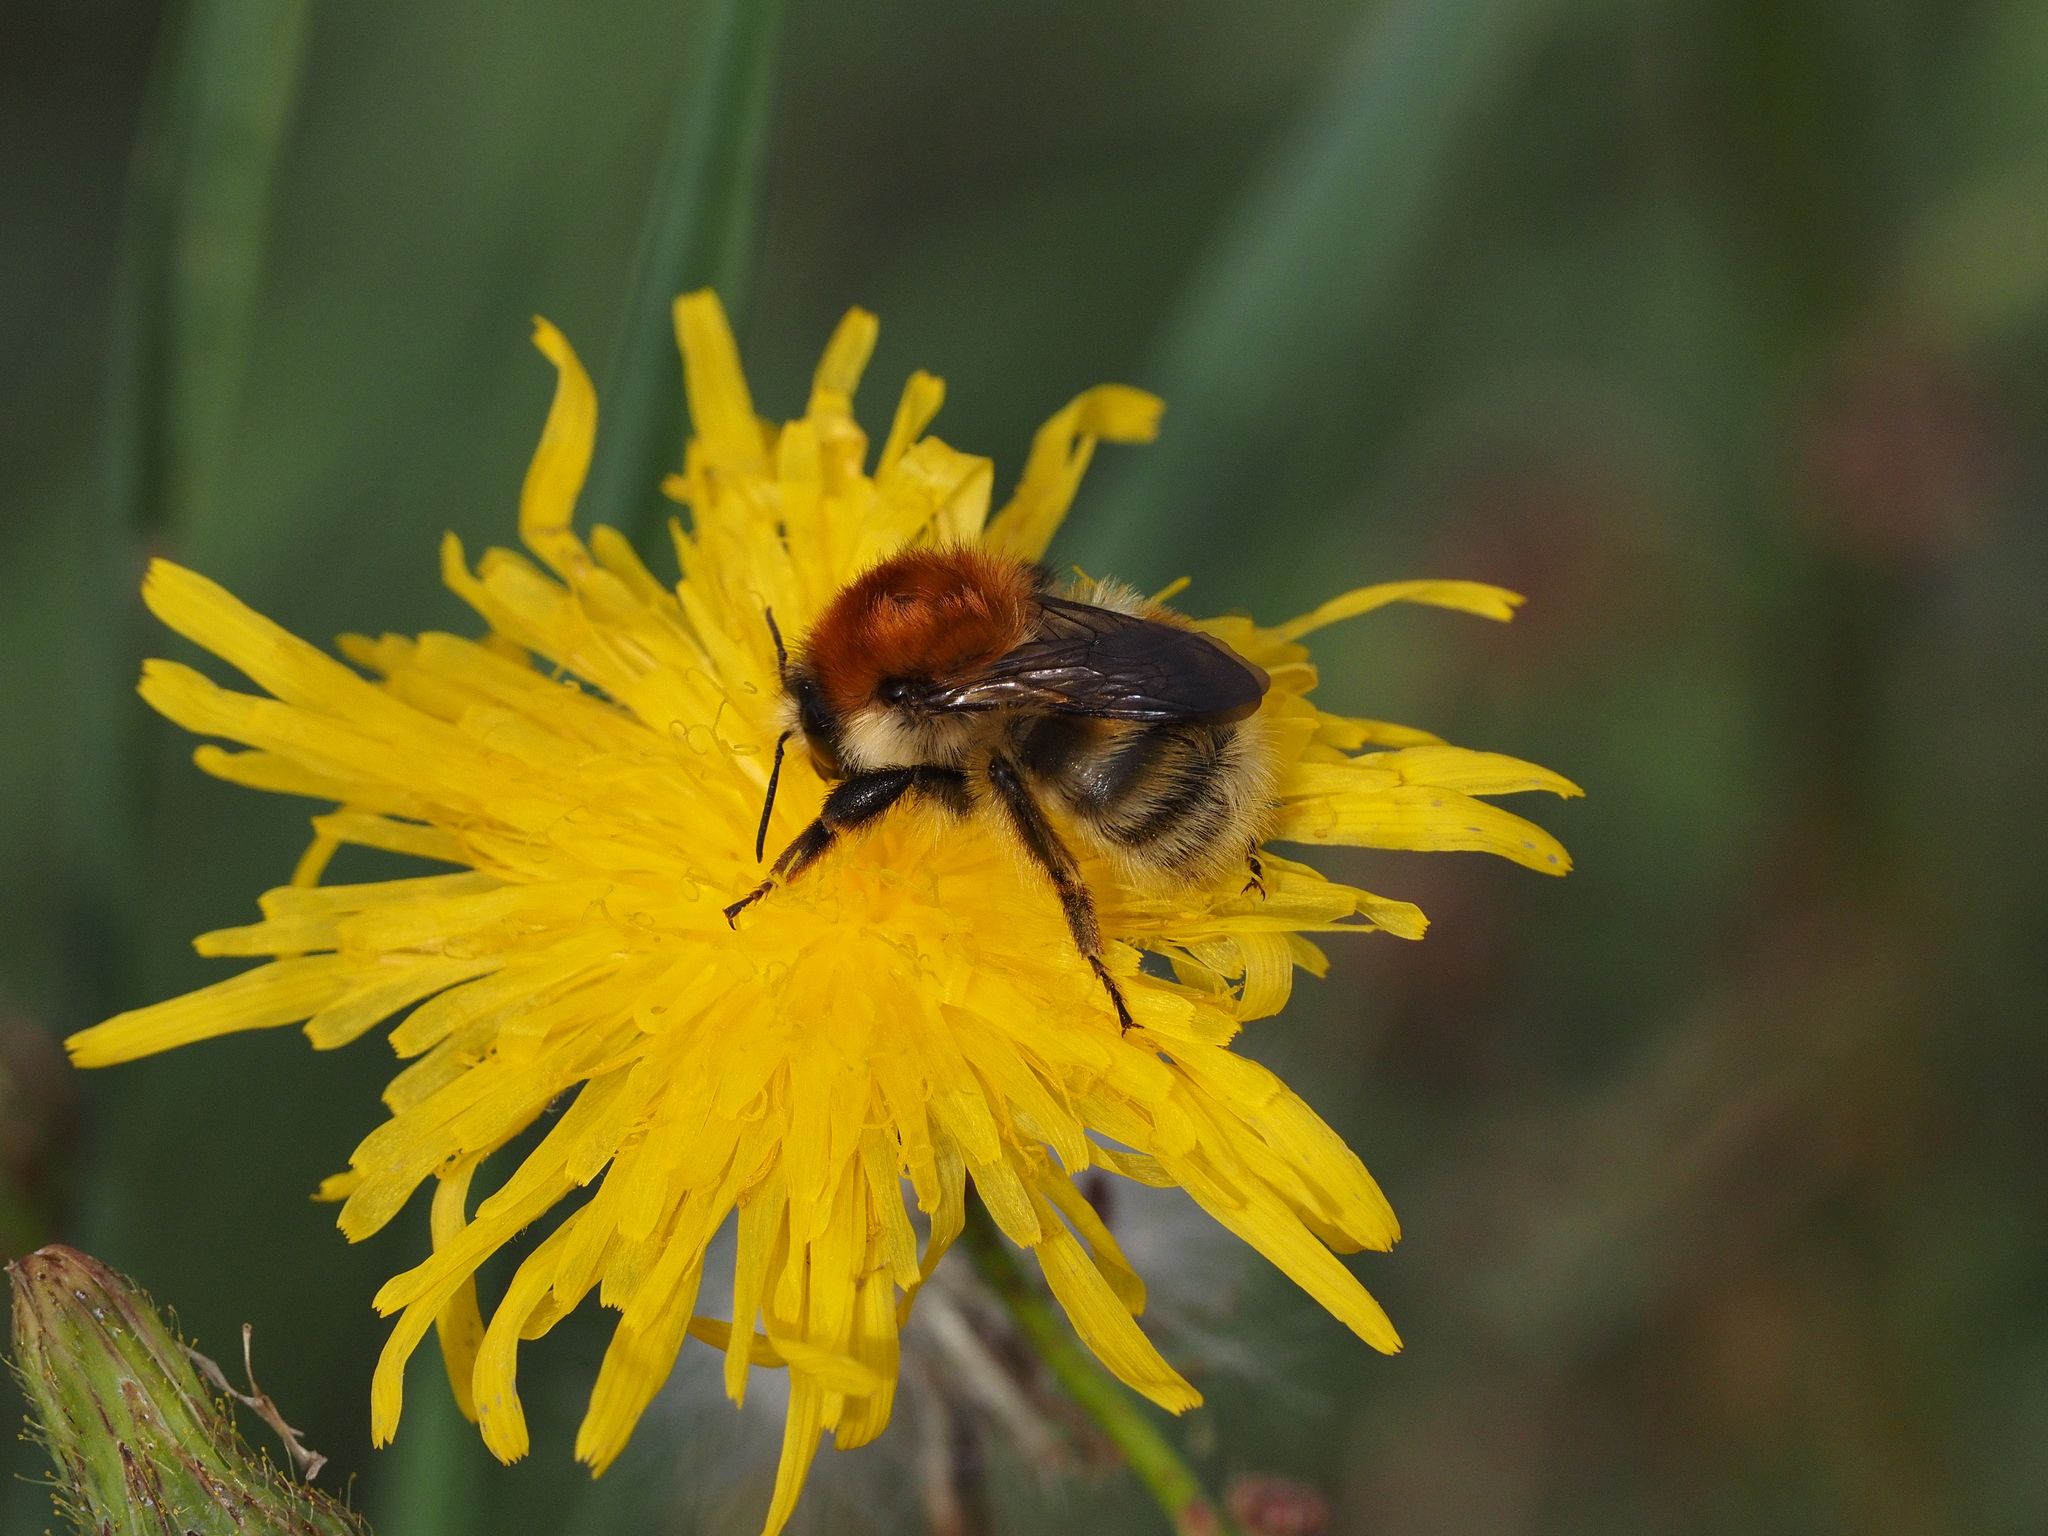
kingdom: Animalia
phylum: Arthropoda
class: Insecta
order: Hymenoptera
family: Apidae
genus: Bombus
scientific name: Bombus humilis
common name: Brown-banded carder-bee
